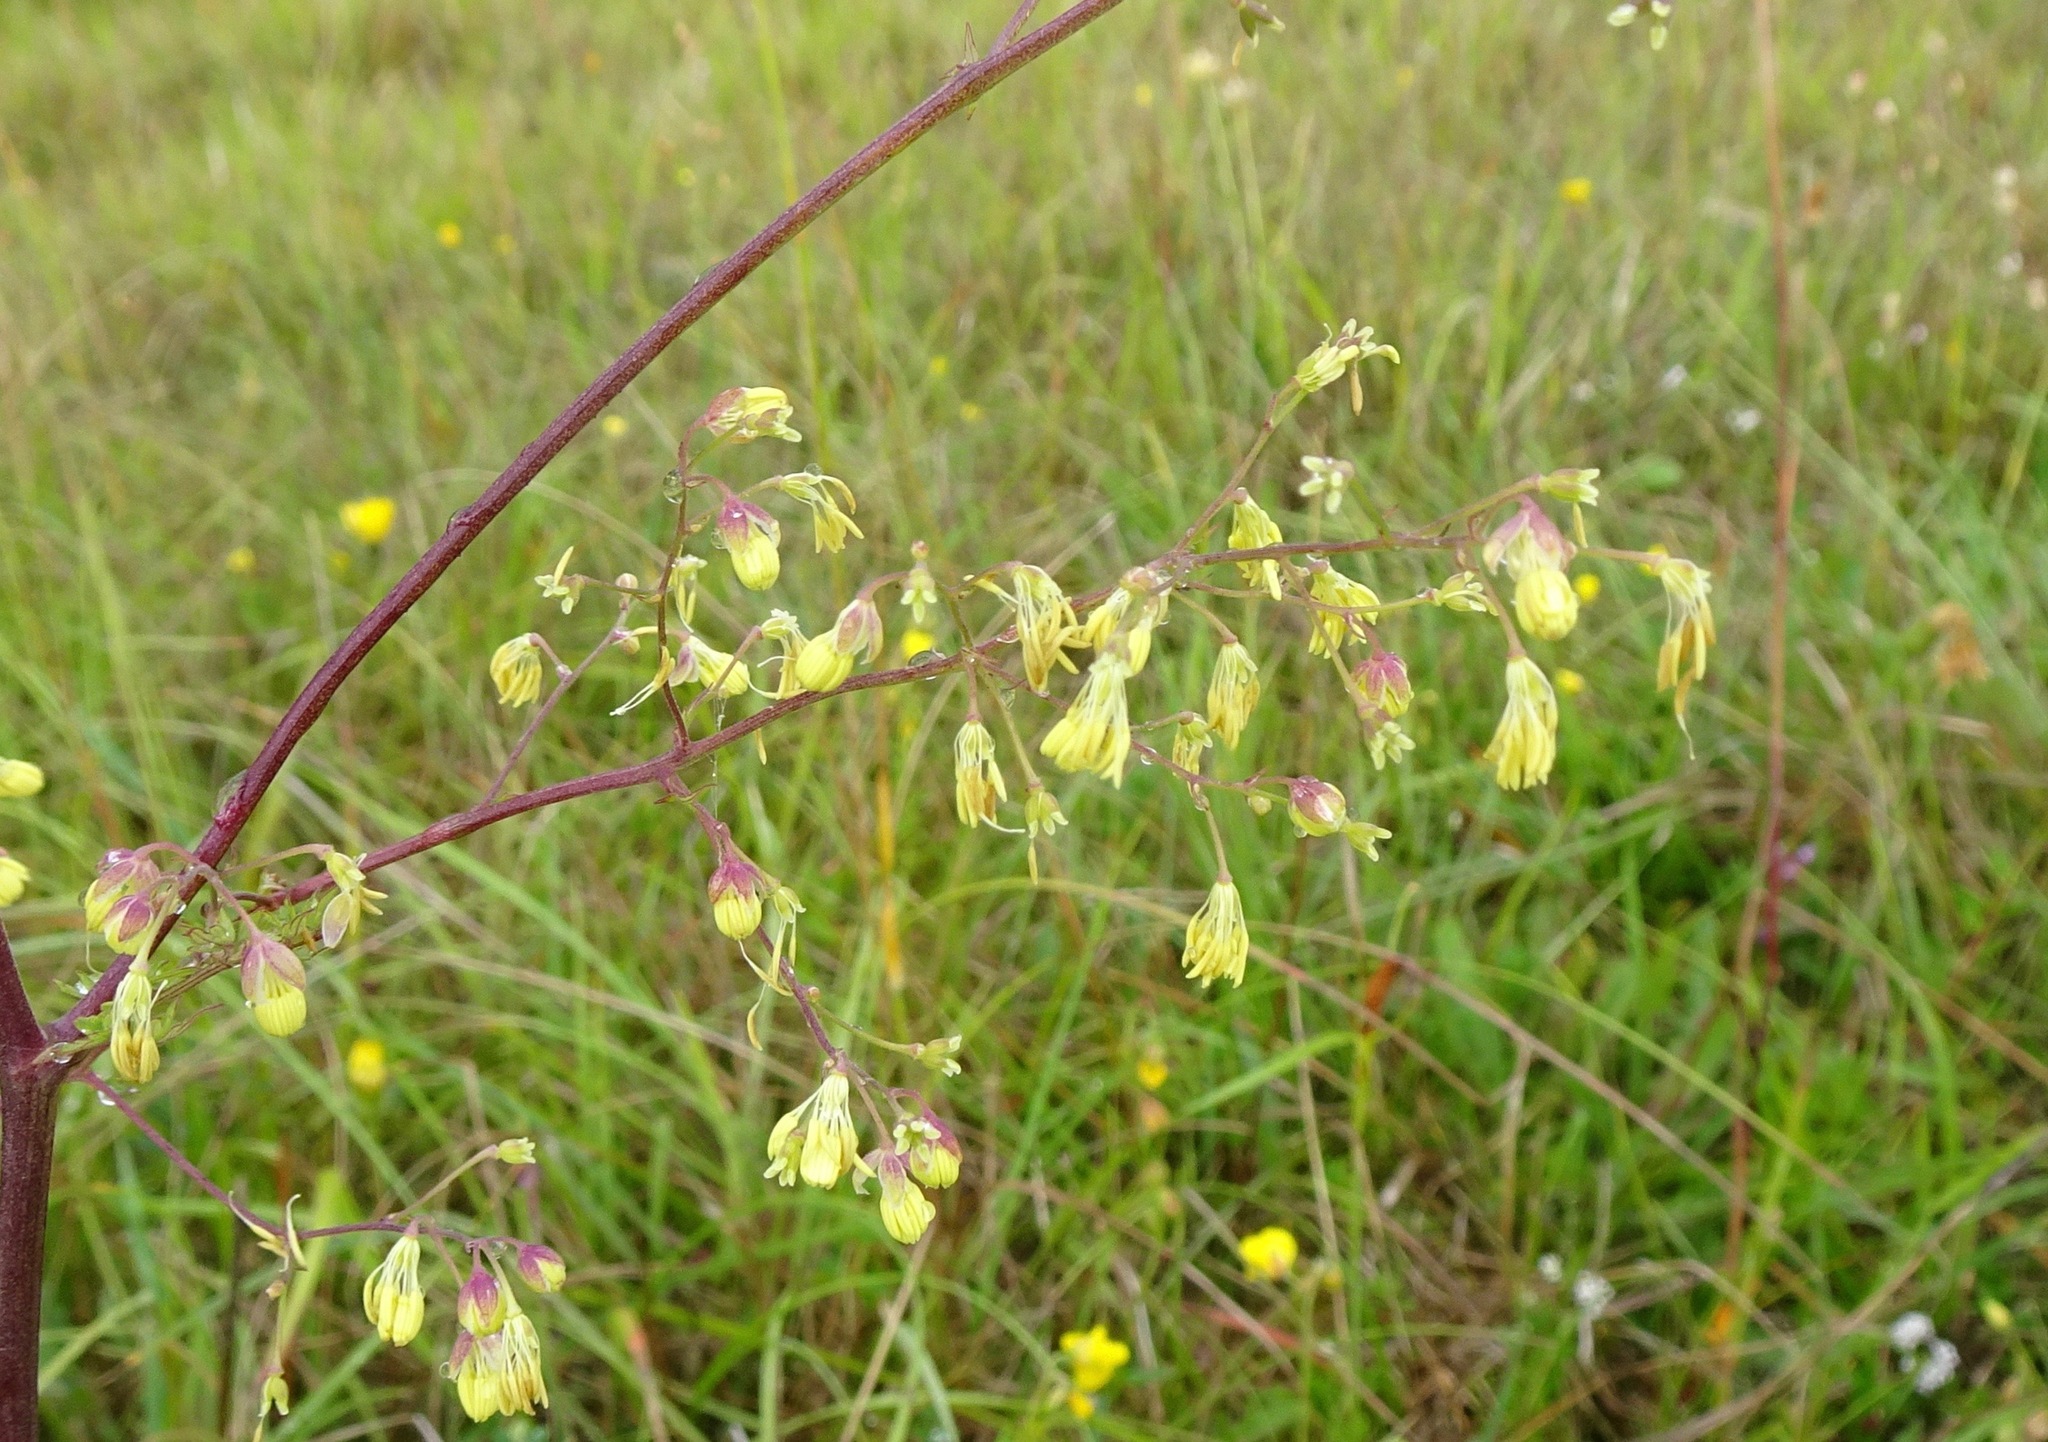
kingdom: Plantae
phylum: Tracheophyta
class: Magnoliopsida
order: Ranunculales
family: Ranunculaceae
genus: Thalictrum
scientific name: Thalictrum minus
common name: Lesser meadow-rue
